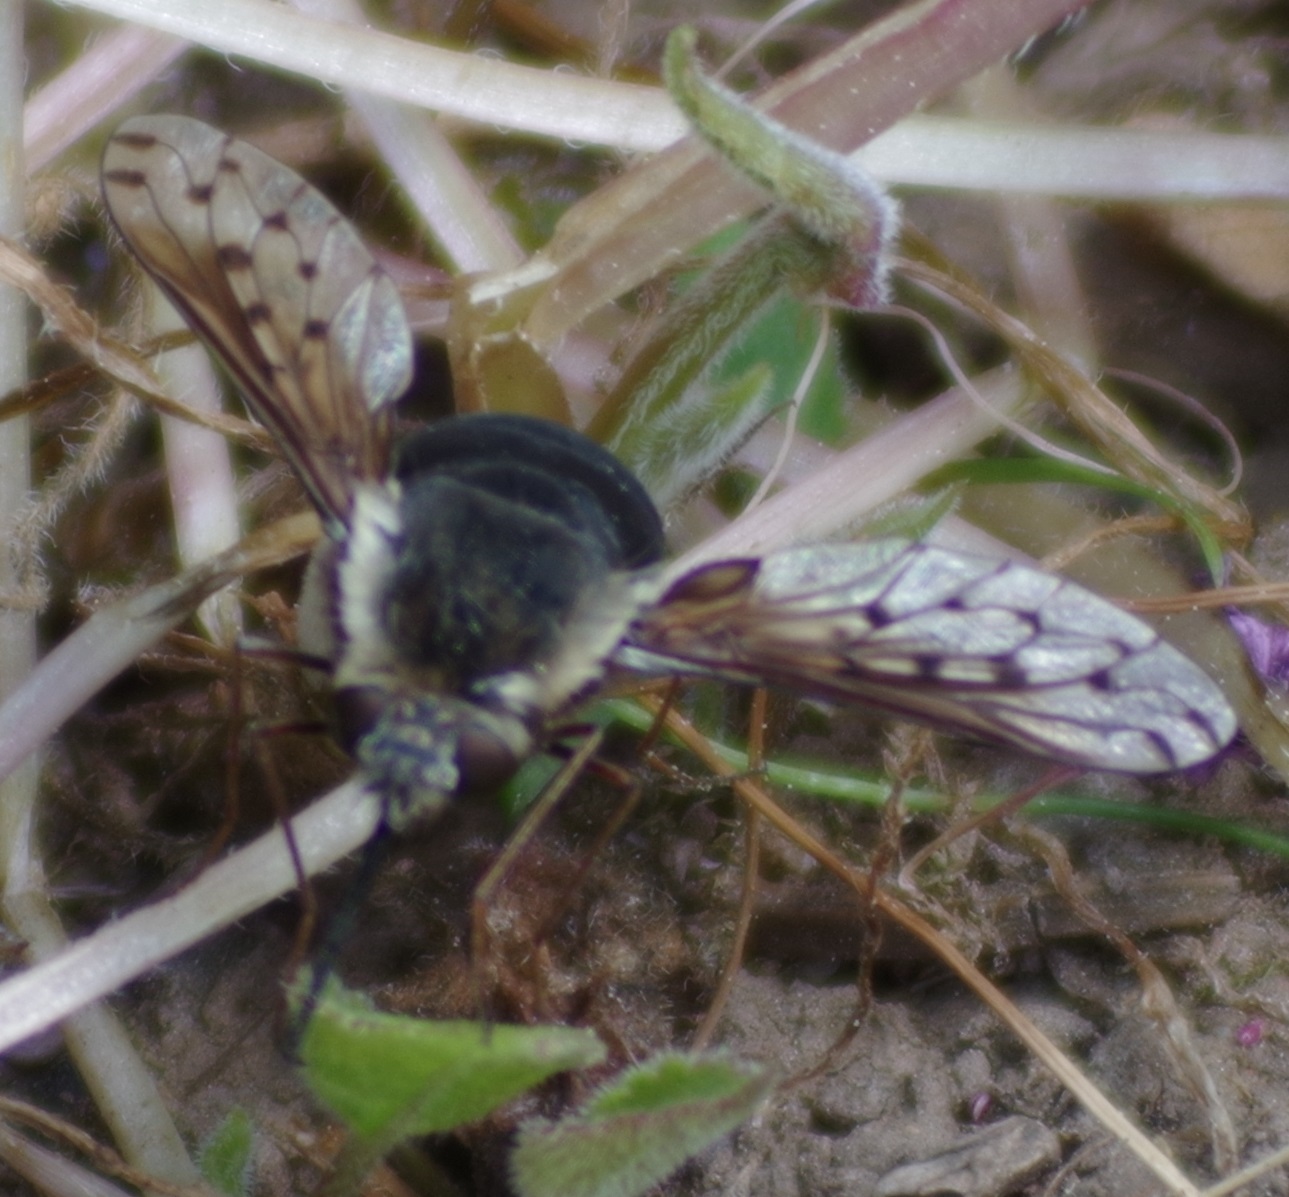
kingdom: Animalia
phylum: Arthropoda
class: Insecta
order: Diptera
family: Bombyliidae
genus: Bombylius
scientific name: Bombylius discolor
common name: Dotted bee-fly
